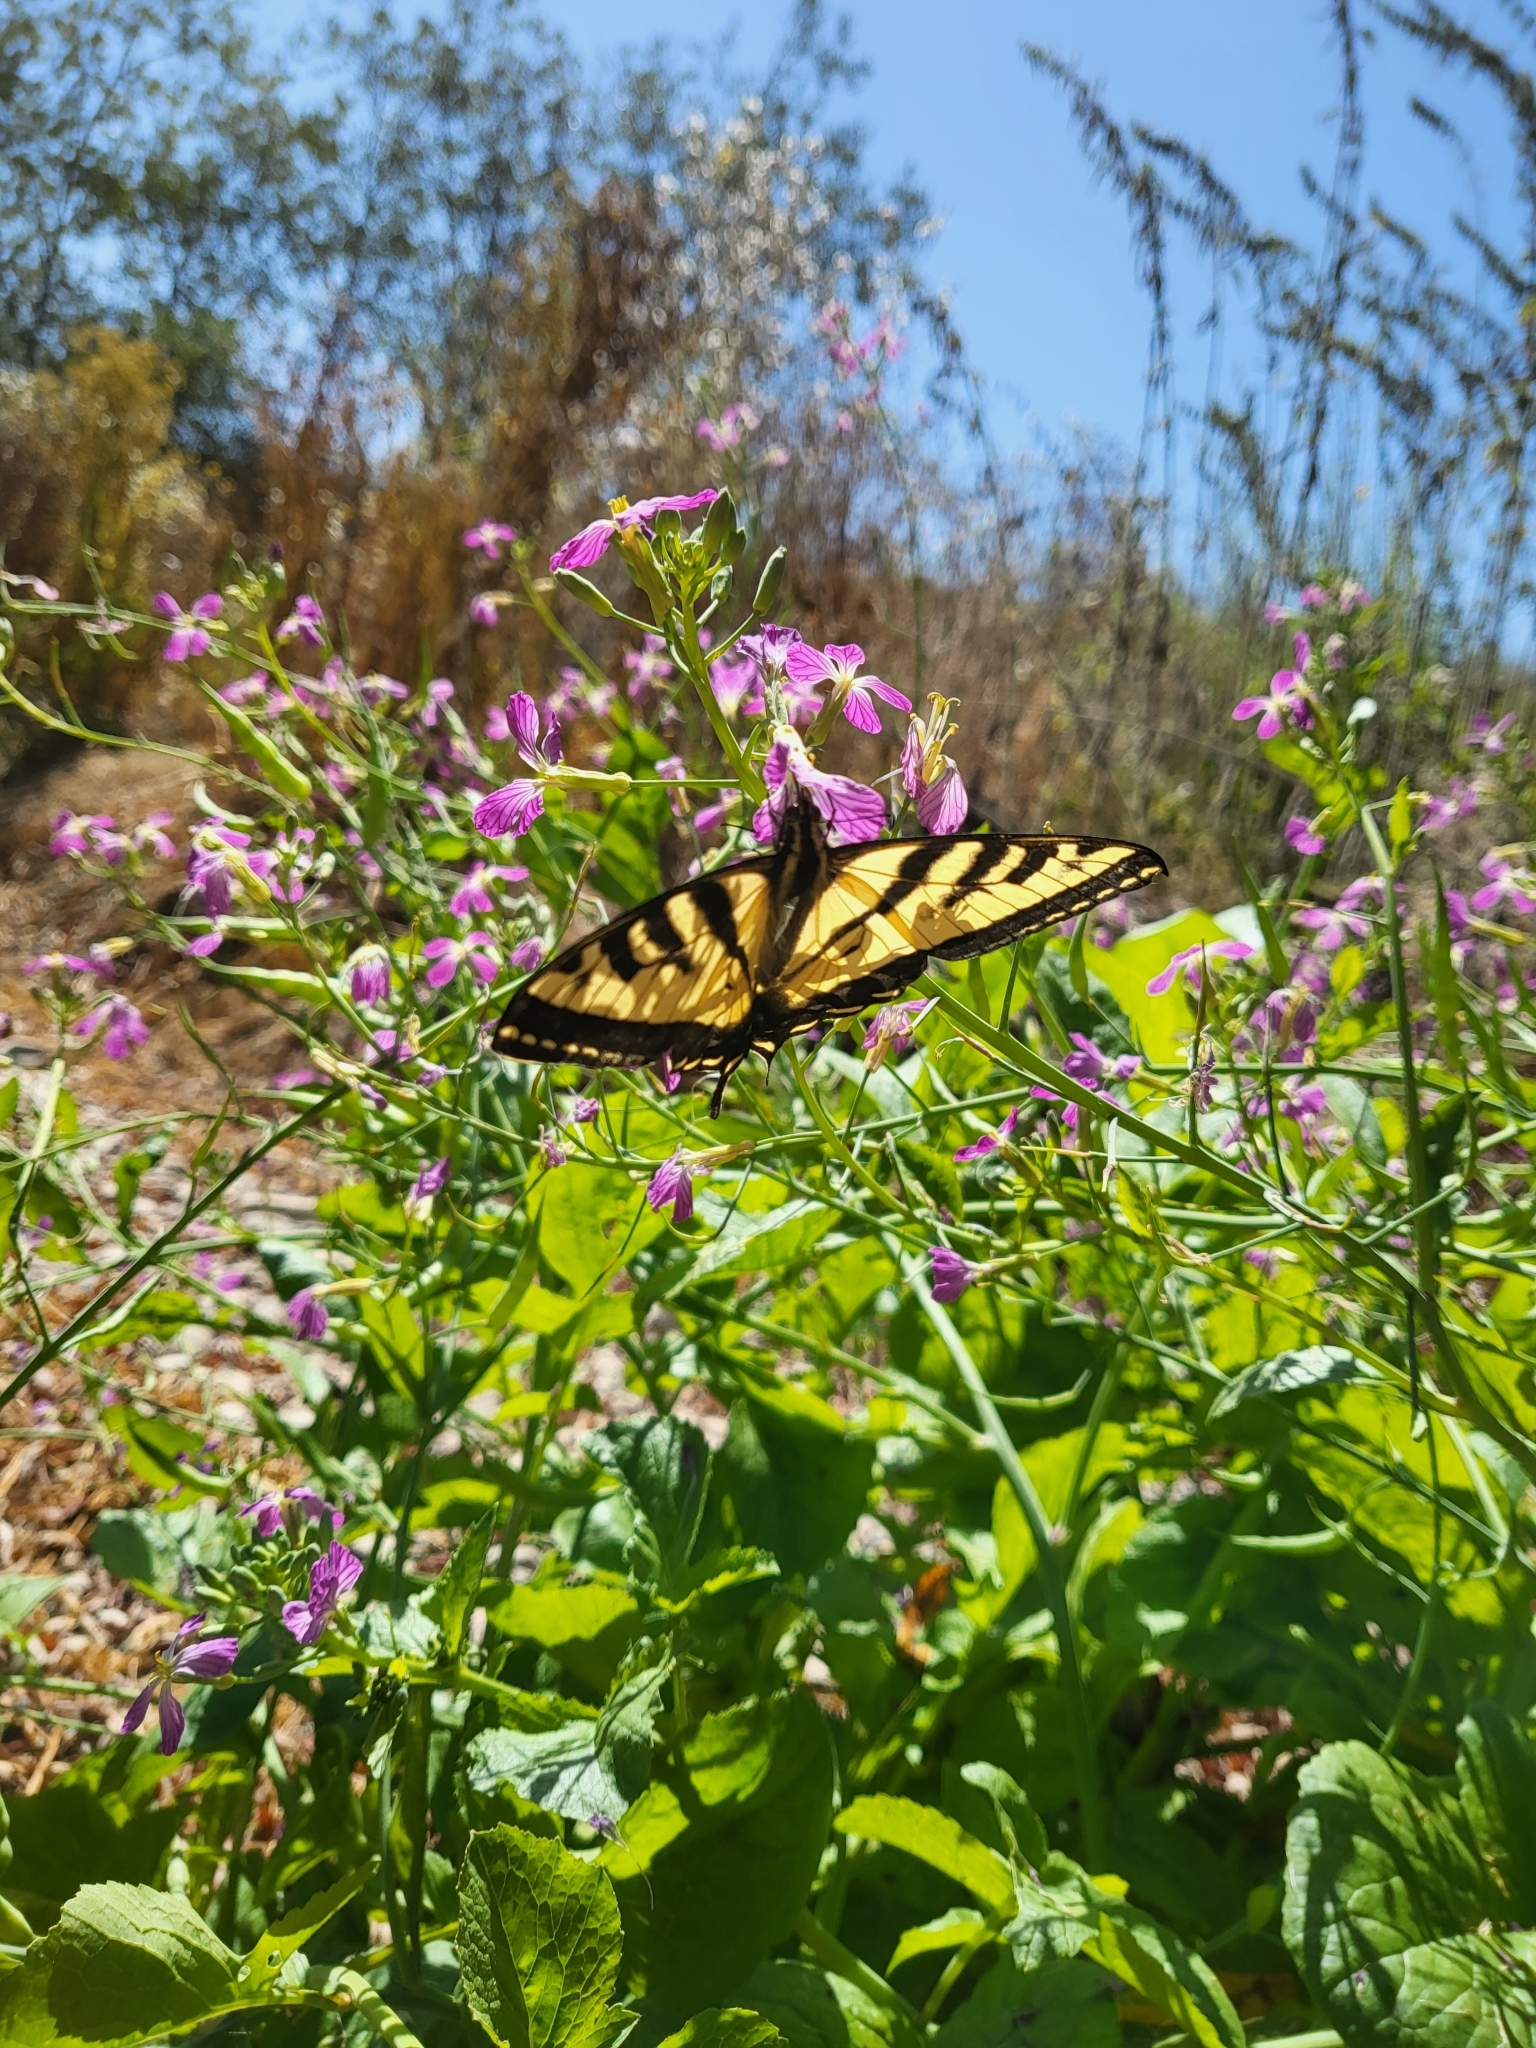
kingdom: Animalia
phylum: Arthropoda
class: Insecta
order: Lepidoptera
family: Papilionidae
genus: Papilio
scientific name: Papilio rutulus
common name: Western tiger swallowtail
